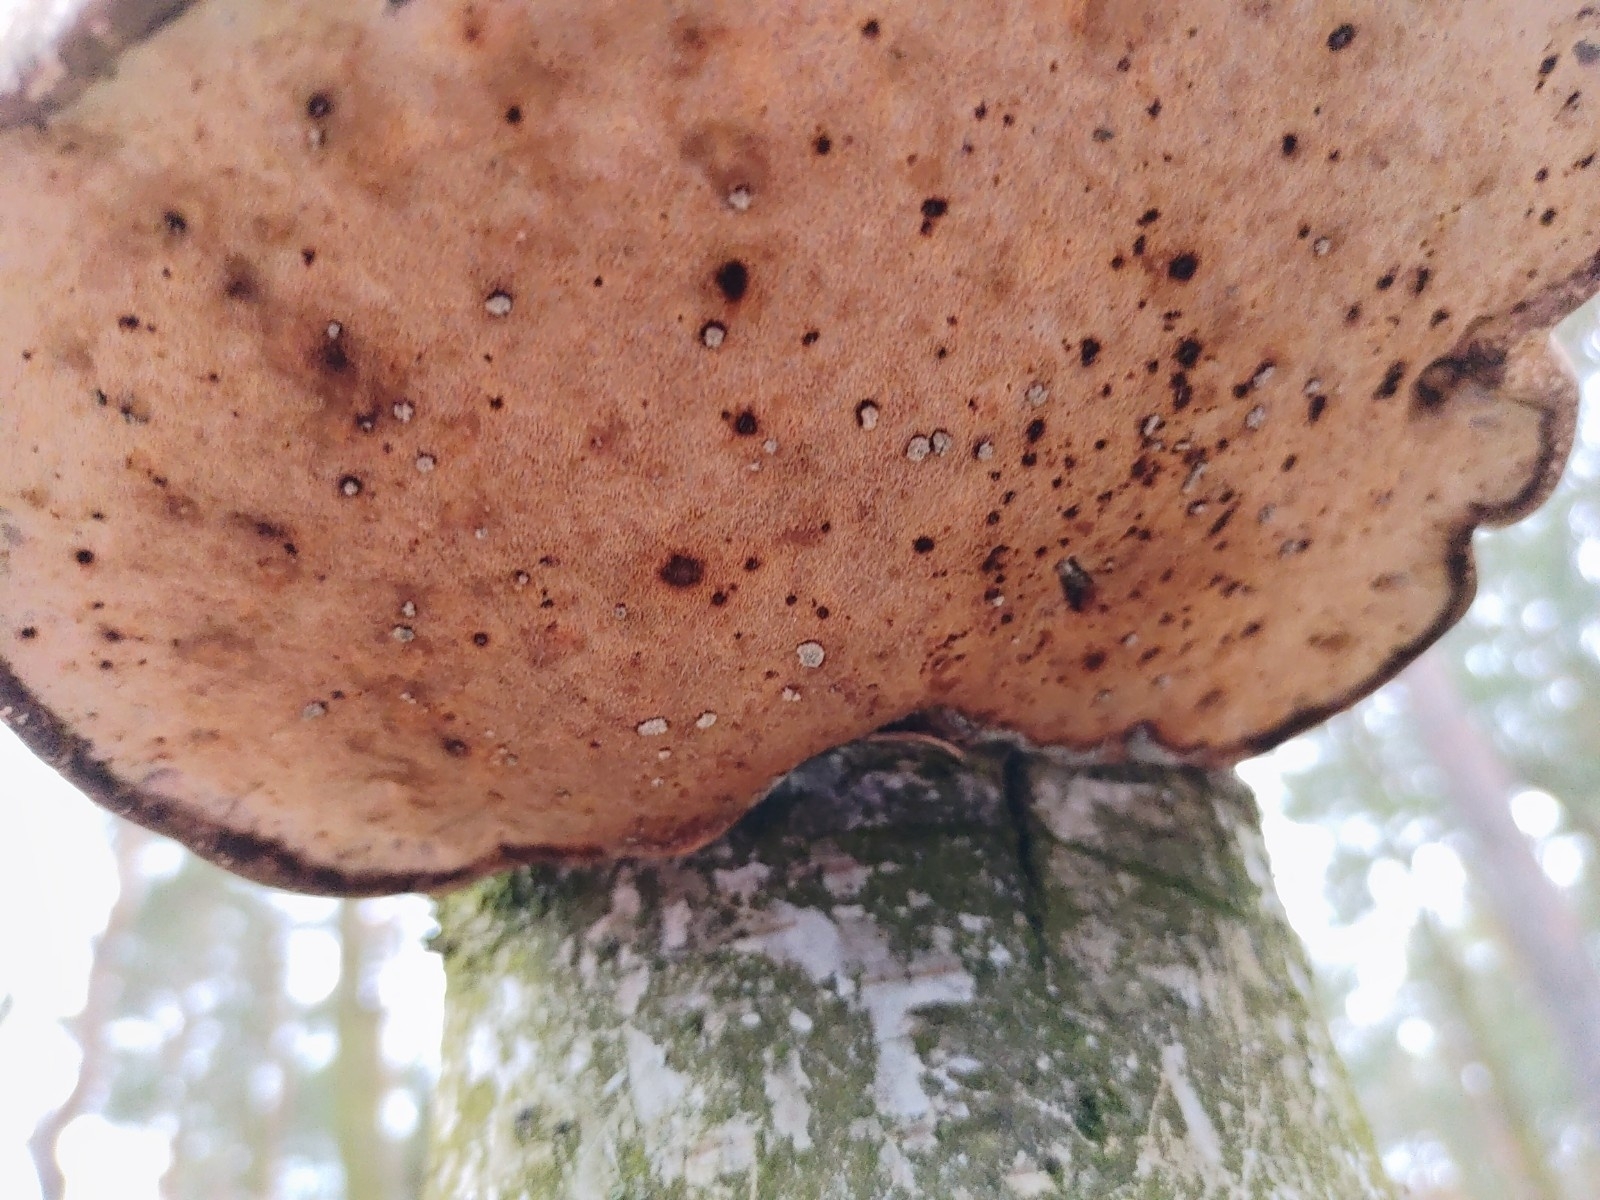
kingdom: Fungi
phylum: Basidiomycota
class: Agaricomycetes
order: Polyporales
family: Fomitopsidaceae
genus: Fomitopsis
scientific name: Fomitopsis betulina
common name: Birch polypore
